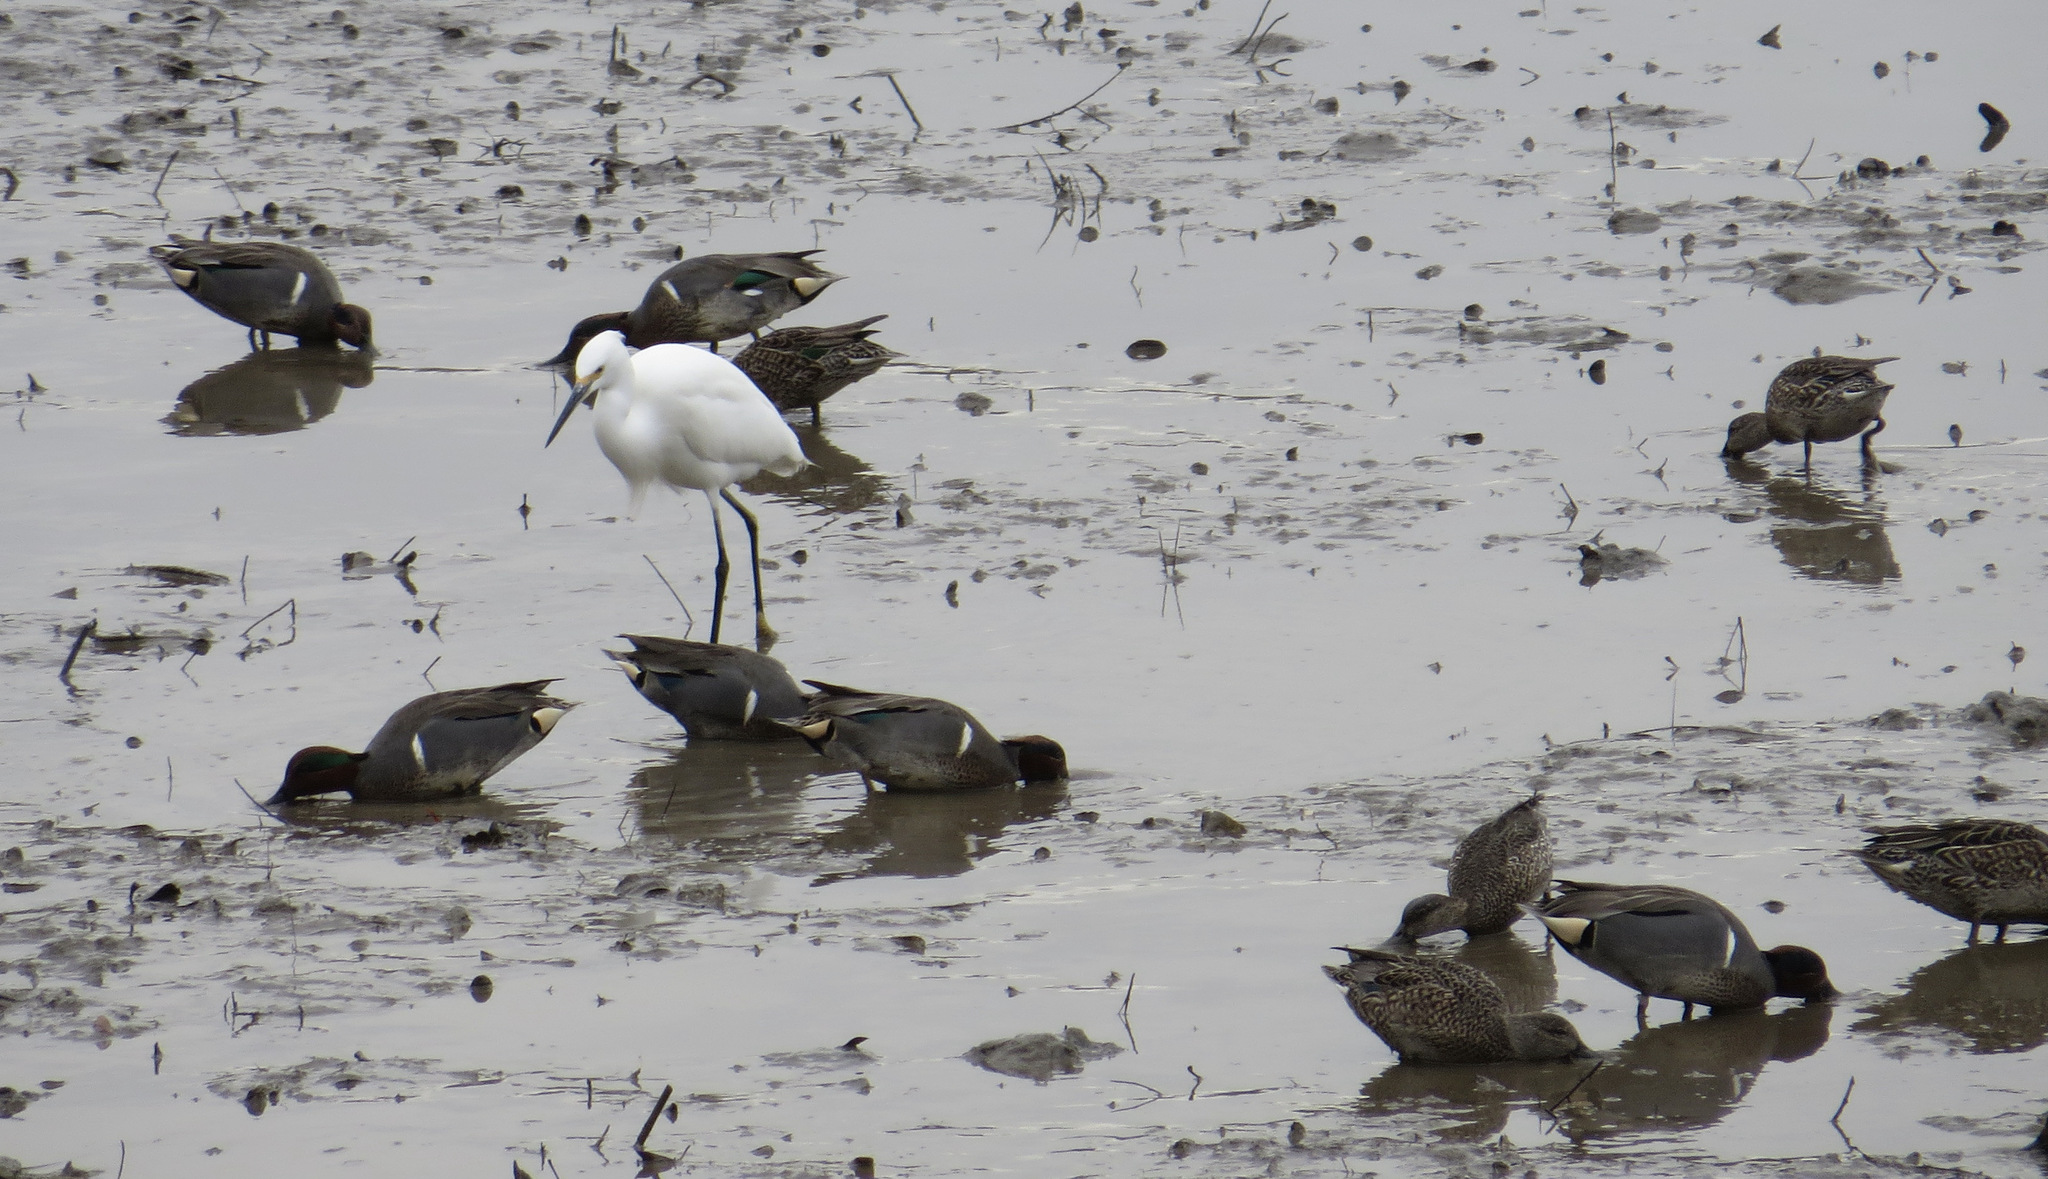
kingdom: Animalia
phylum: Chordata
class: Aves
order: Anseriformes
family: Anatidae
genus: Anas
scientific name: Anas crecca
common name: Eurasian teal
